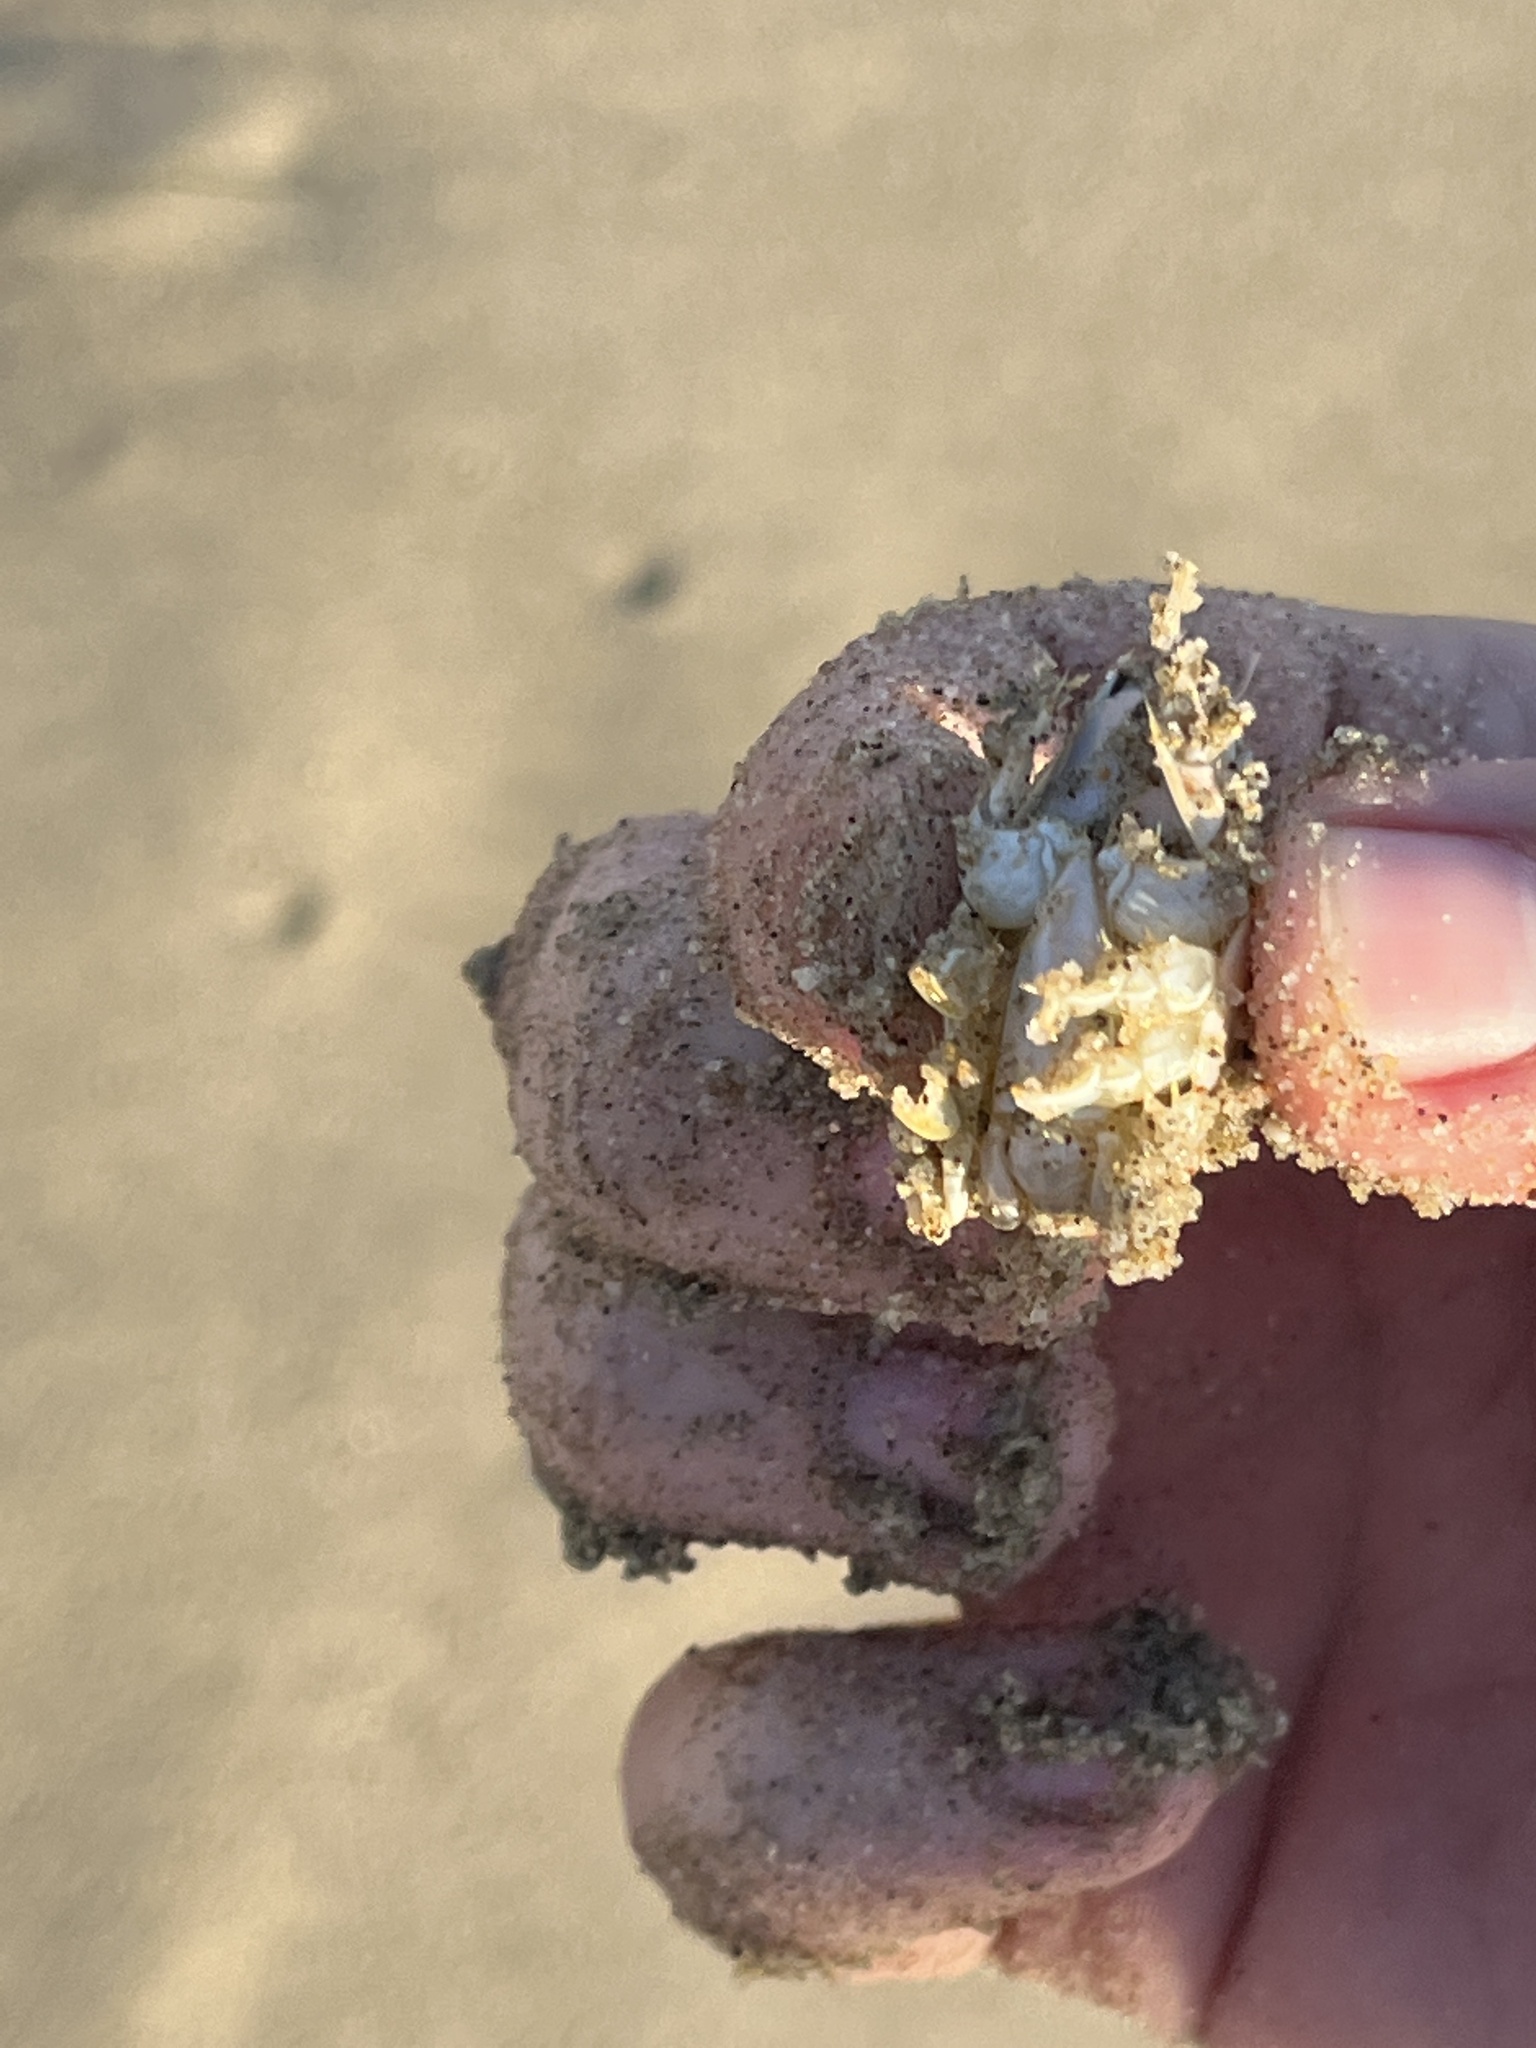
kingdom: Animalia
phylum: Arthropoda
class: Malacostraca
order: Decapoda
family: Hippidae
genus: Emerita
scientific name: Emerita analoga
